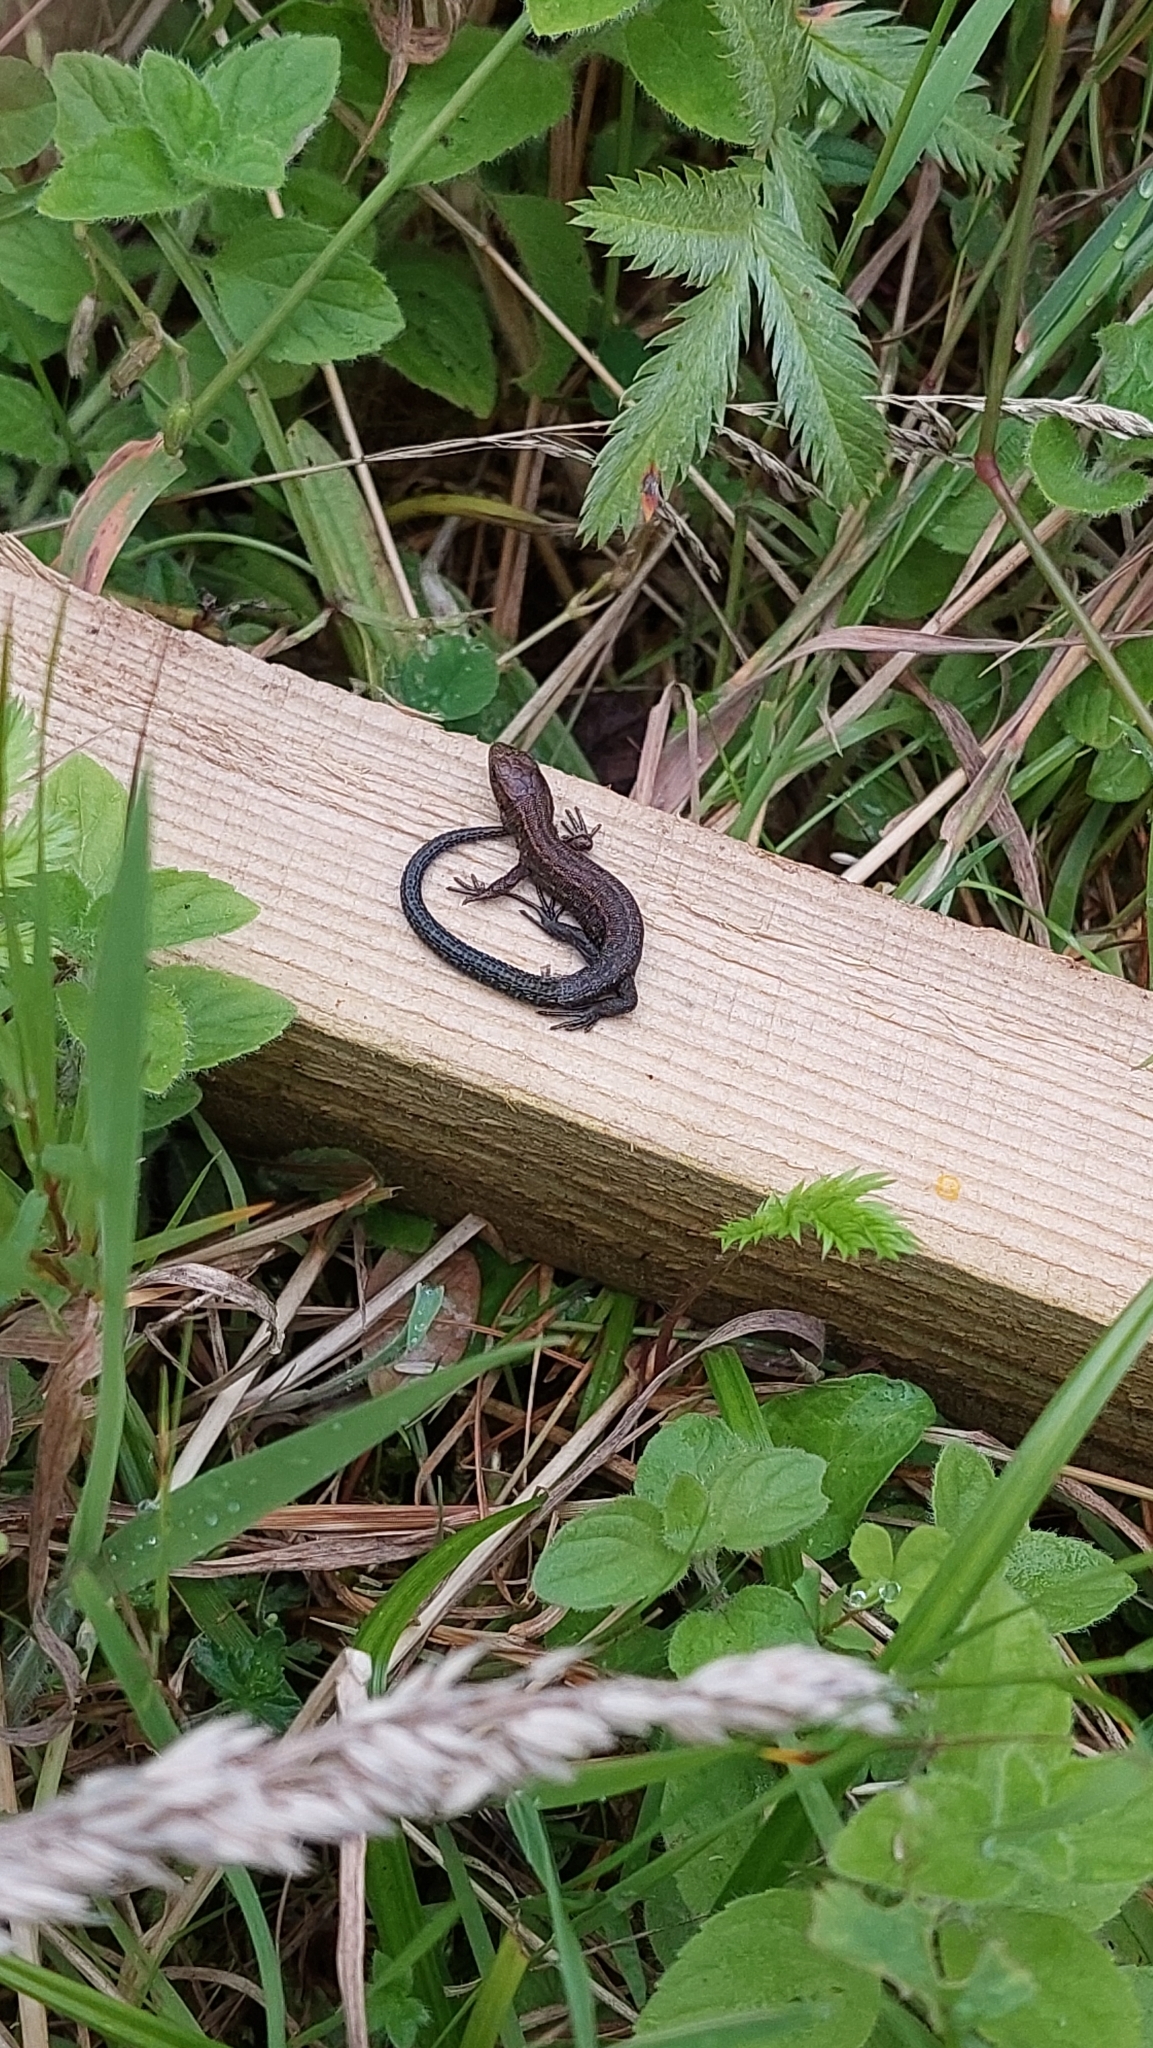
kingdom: Animalia
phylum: Chordata
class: Squamata
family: Lacertidae
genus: Zootoca
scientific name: Zootoca vivipara
